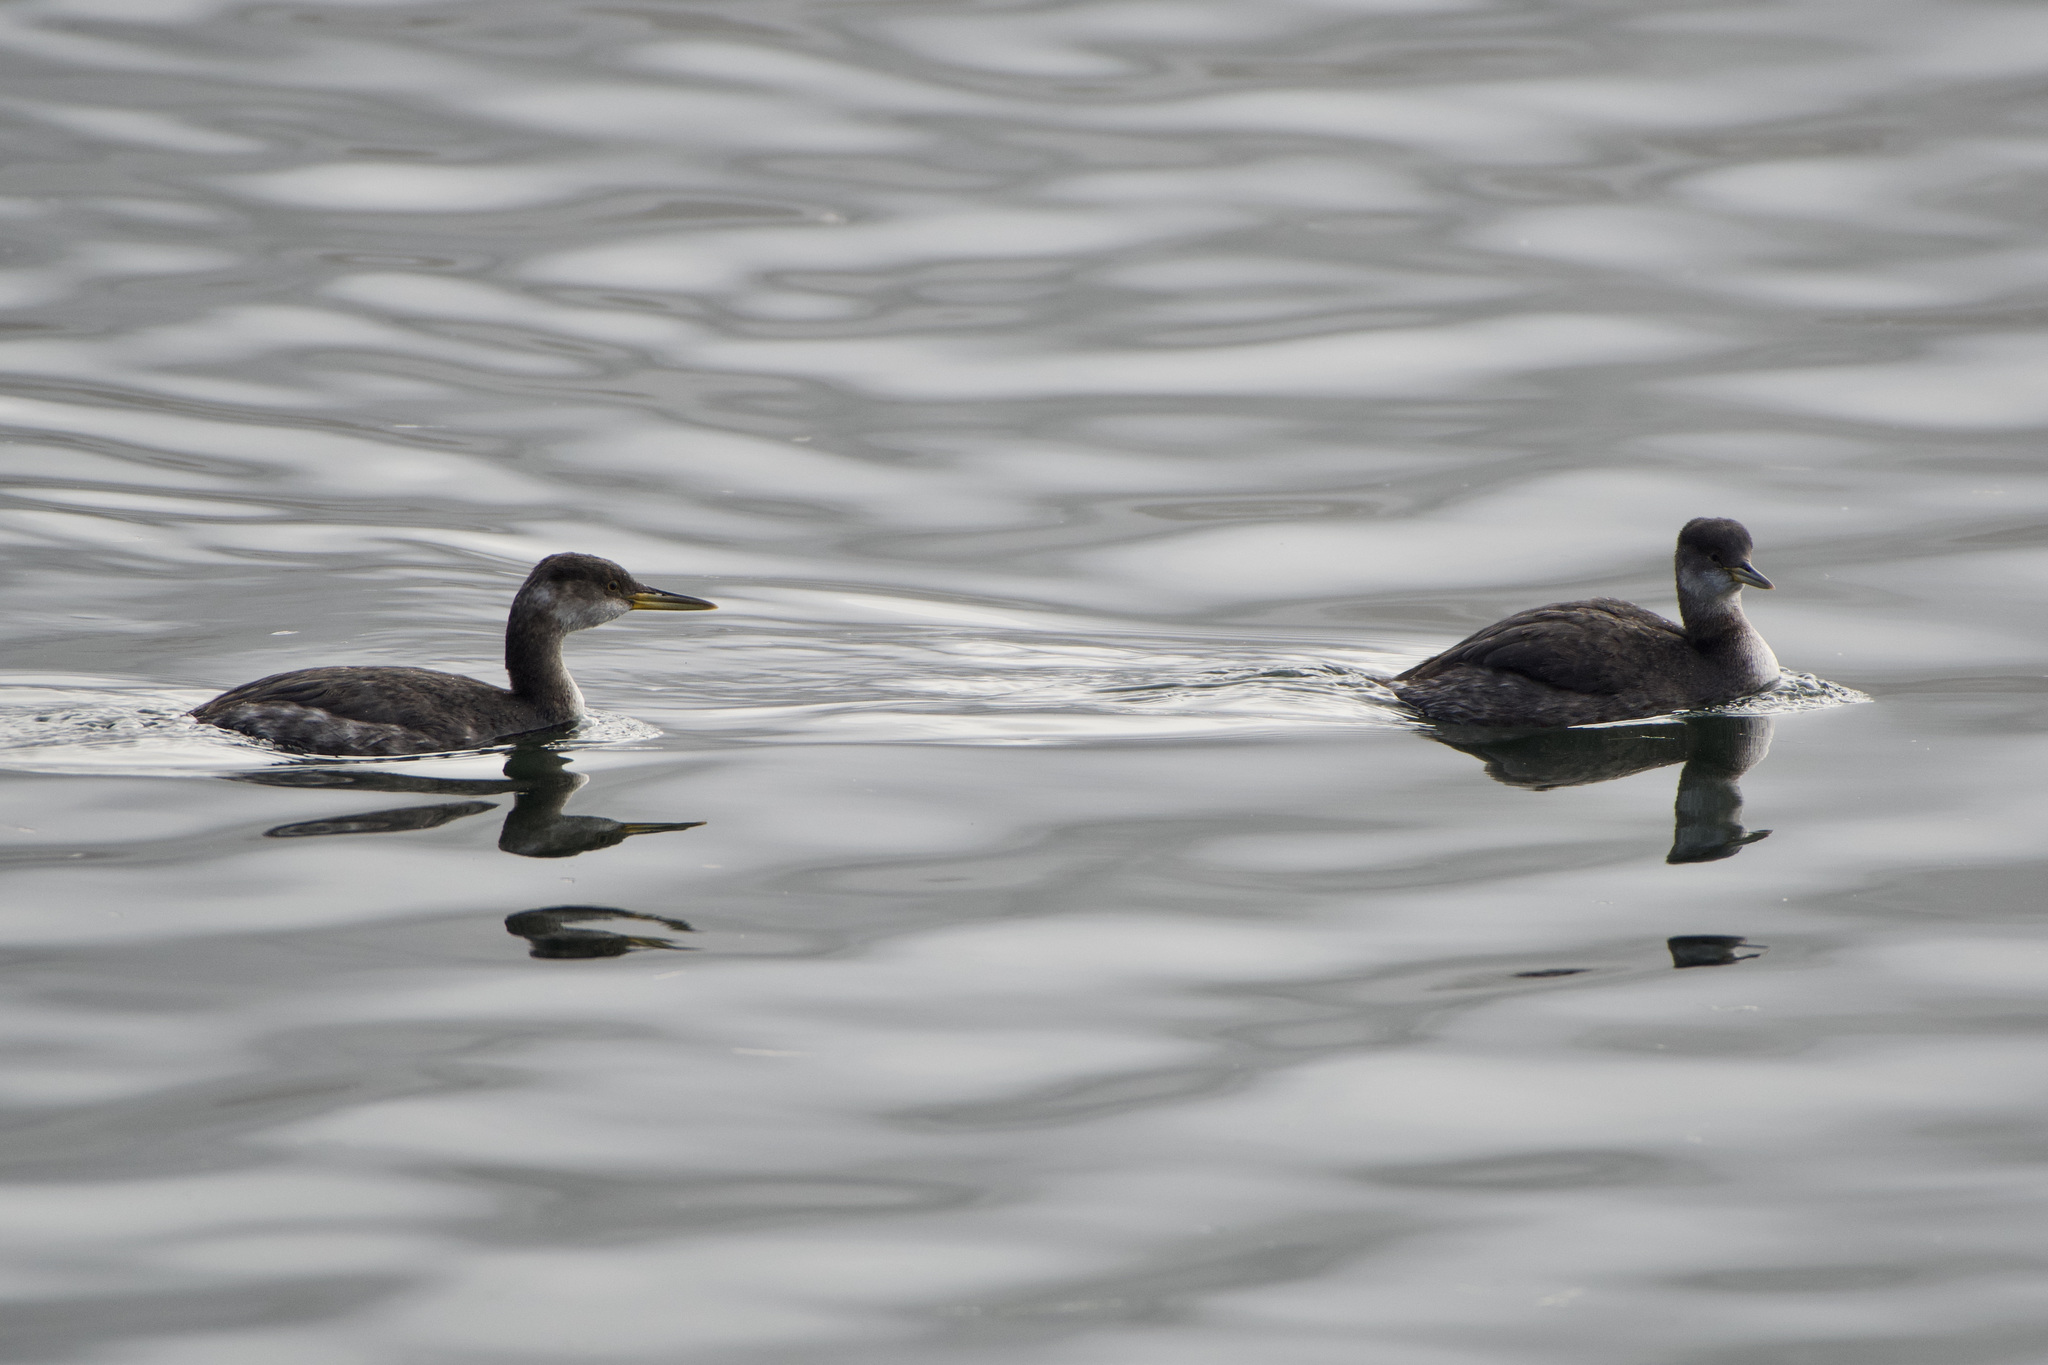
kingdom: Animalia
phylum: Chordata
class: Aves
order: Podicipediformes
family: Podicipedidae
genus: Podiceps
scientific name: Podiceps grisegena
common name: Red-necked grebe
